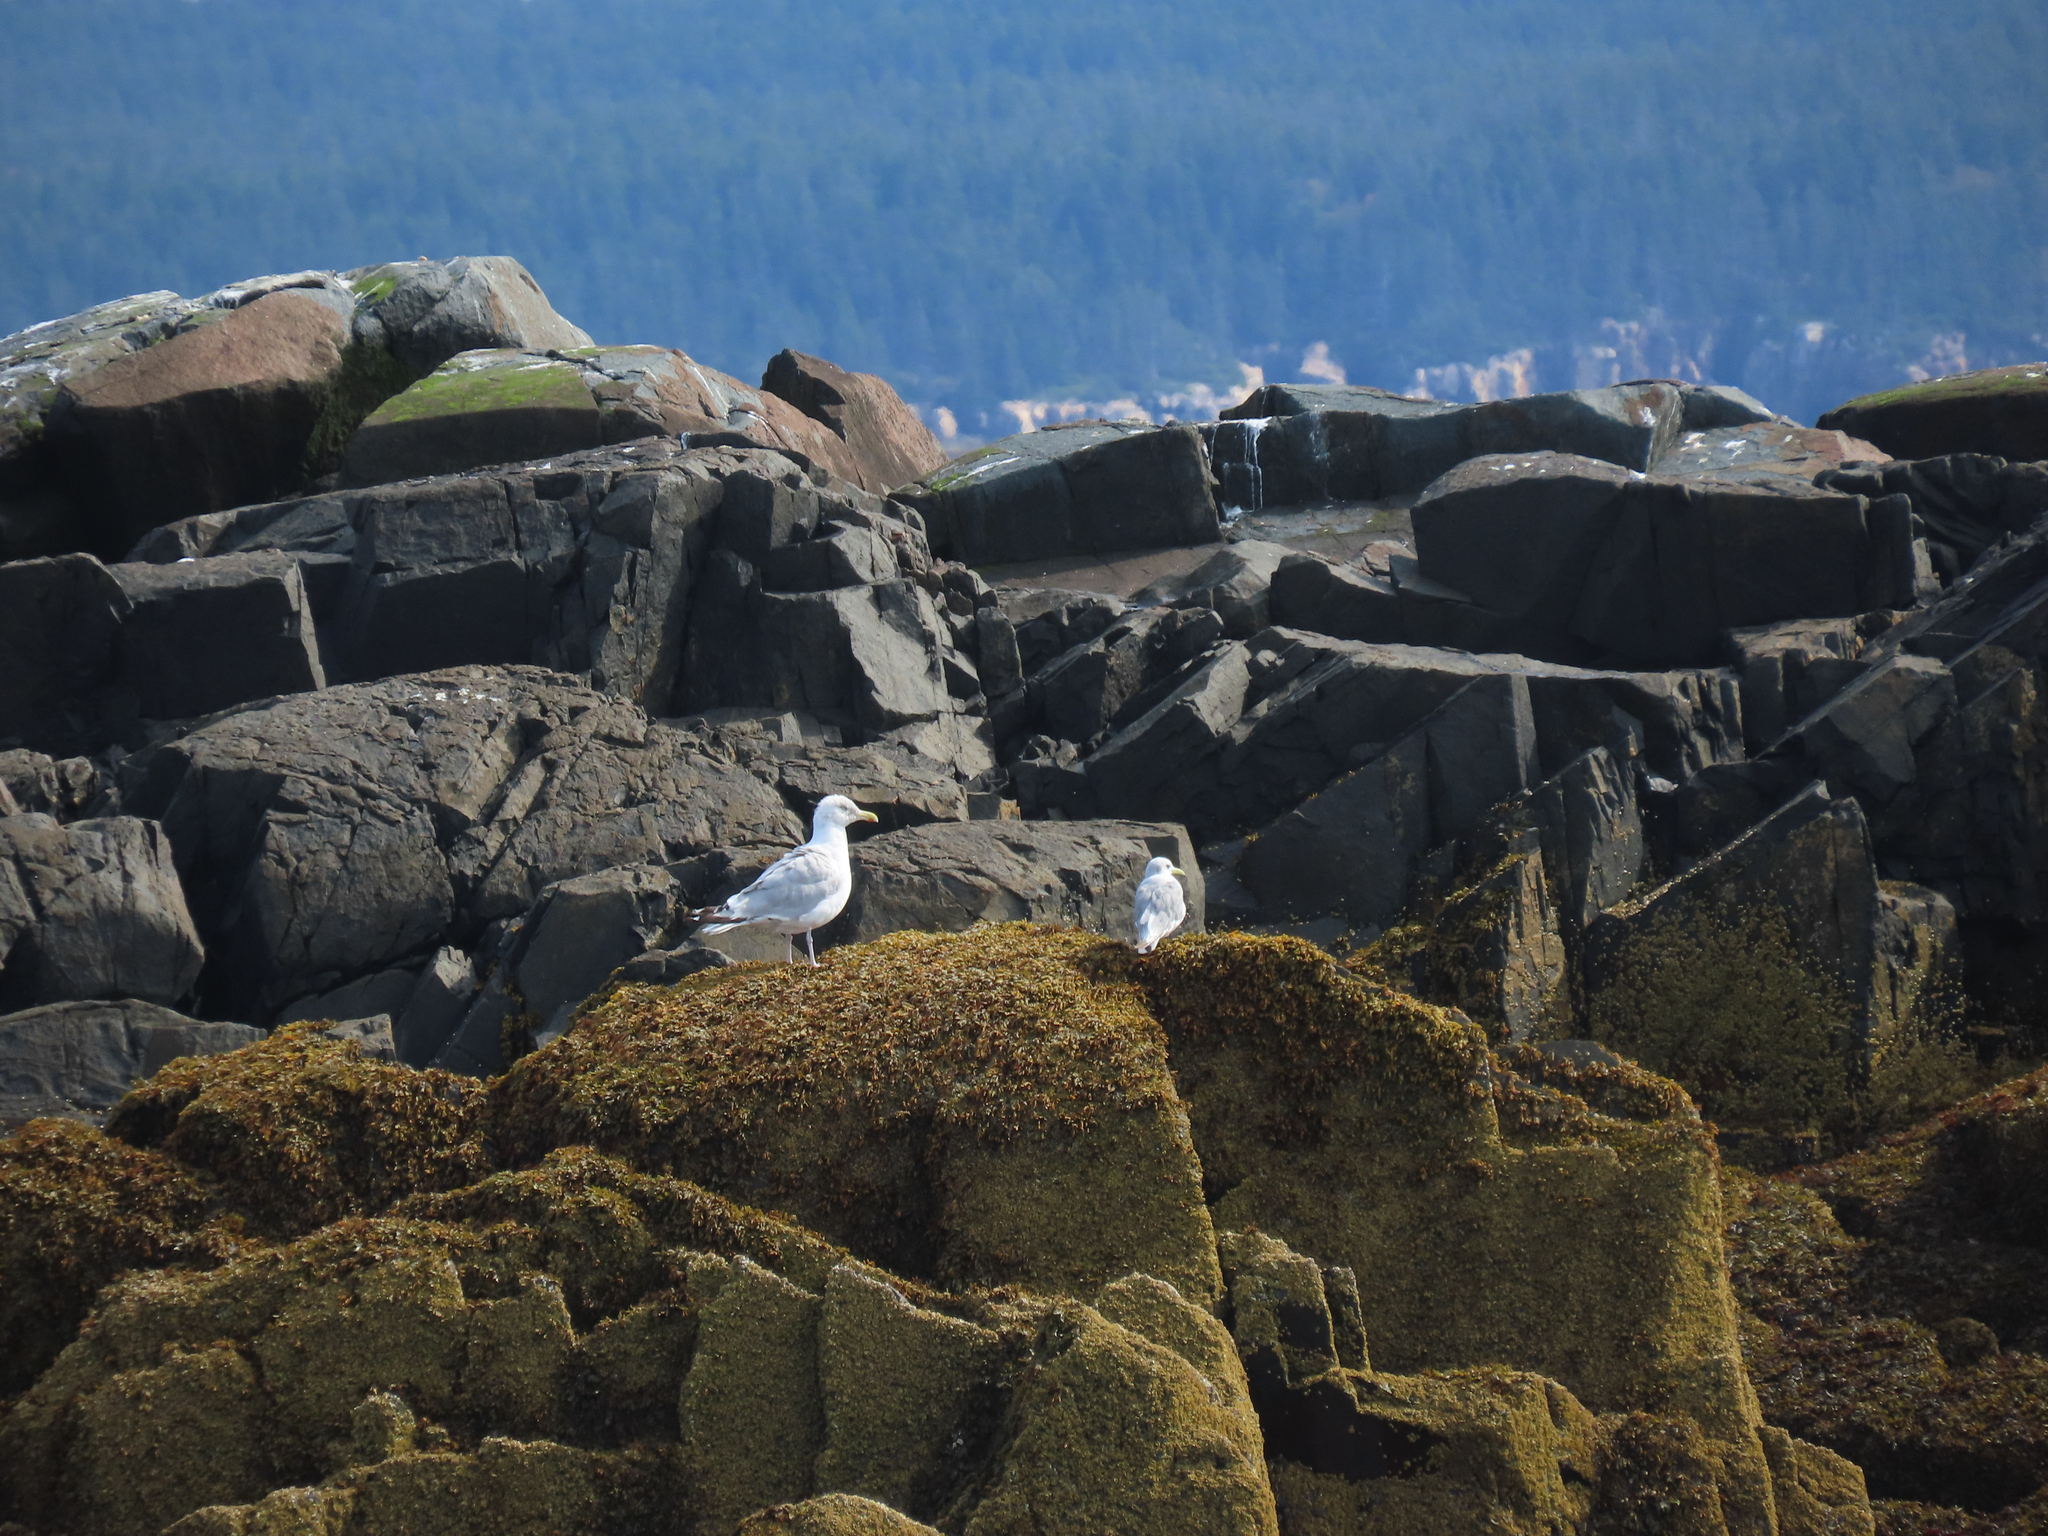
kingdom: Animalia
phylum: Chordata
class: Aves
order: Charadriiformes
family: Laridae
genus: Rissa
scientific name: Rissa tridactyla
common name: Black-legged kittiwake
